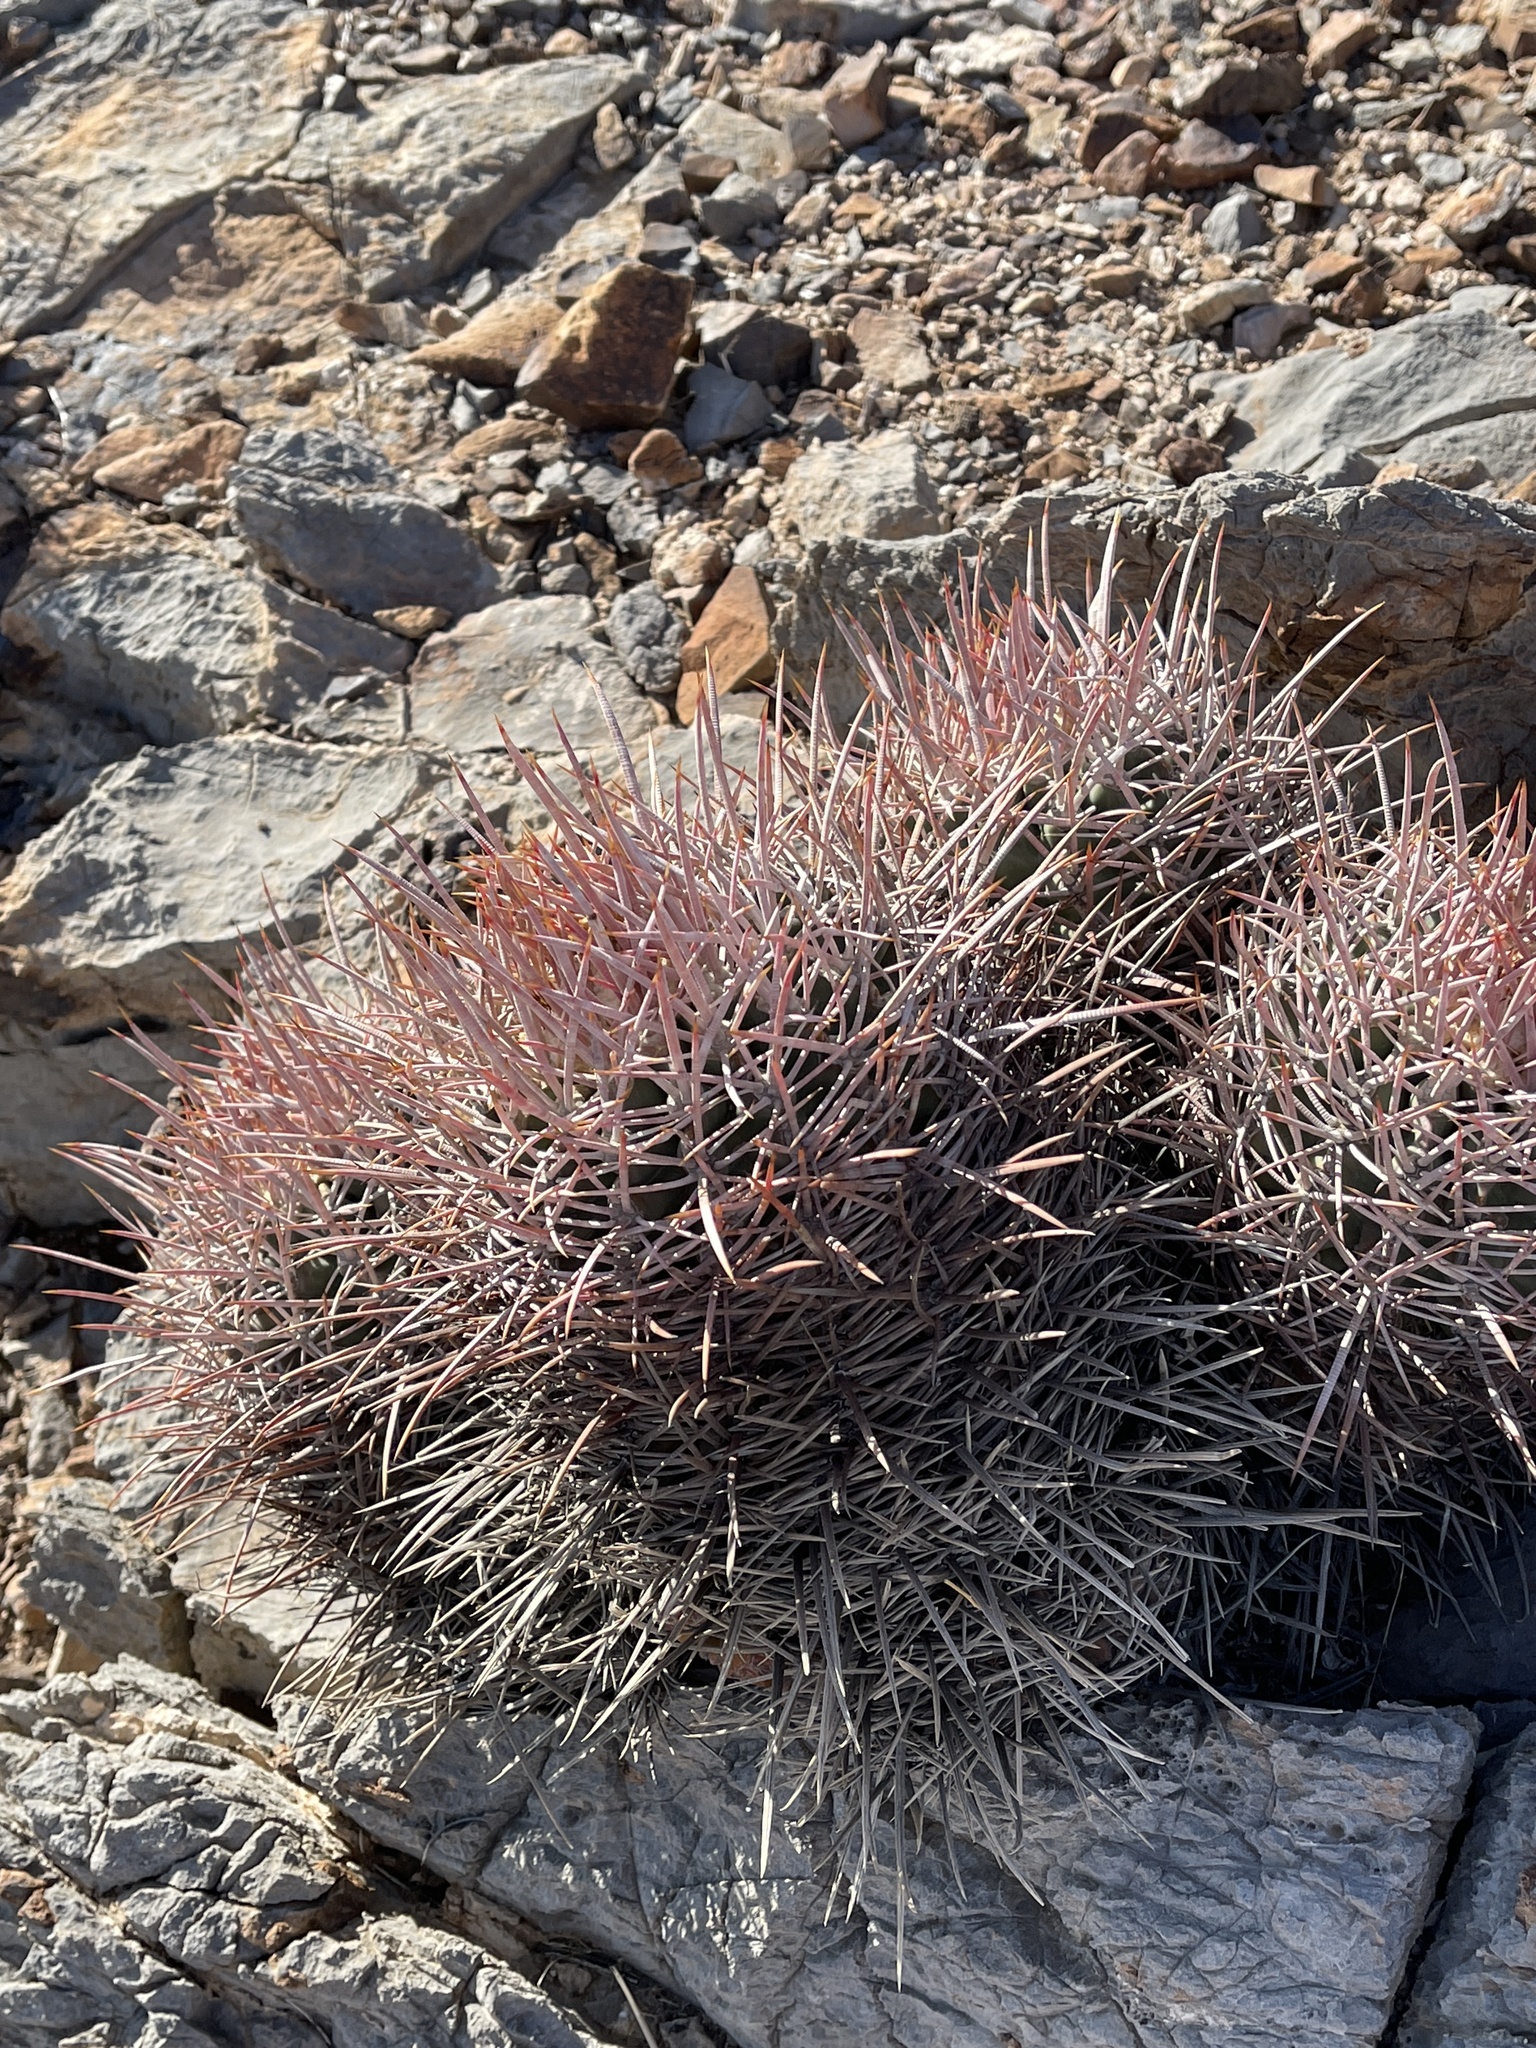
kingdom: Plantae
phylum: Tracheophyta
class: Magnoliopsida
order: Caryophyllales
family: Cactaceae
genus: Echinocactus
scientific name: Echinocactus polycephalus
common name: Cottontop cactus
